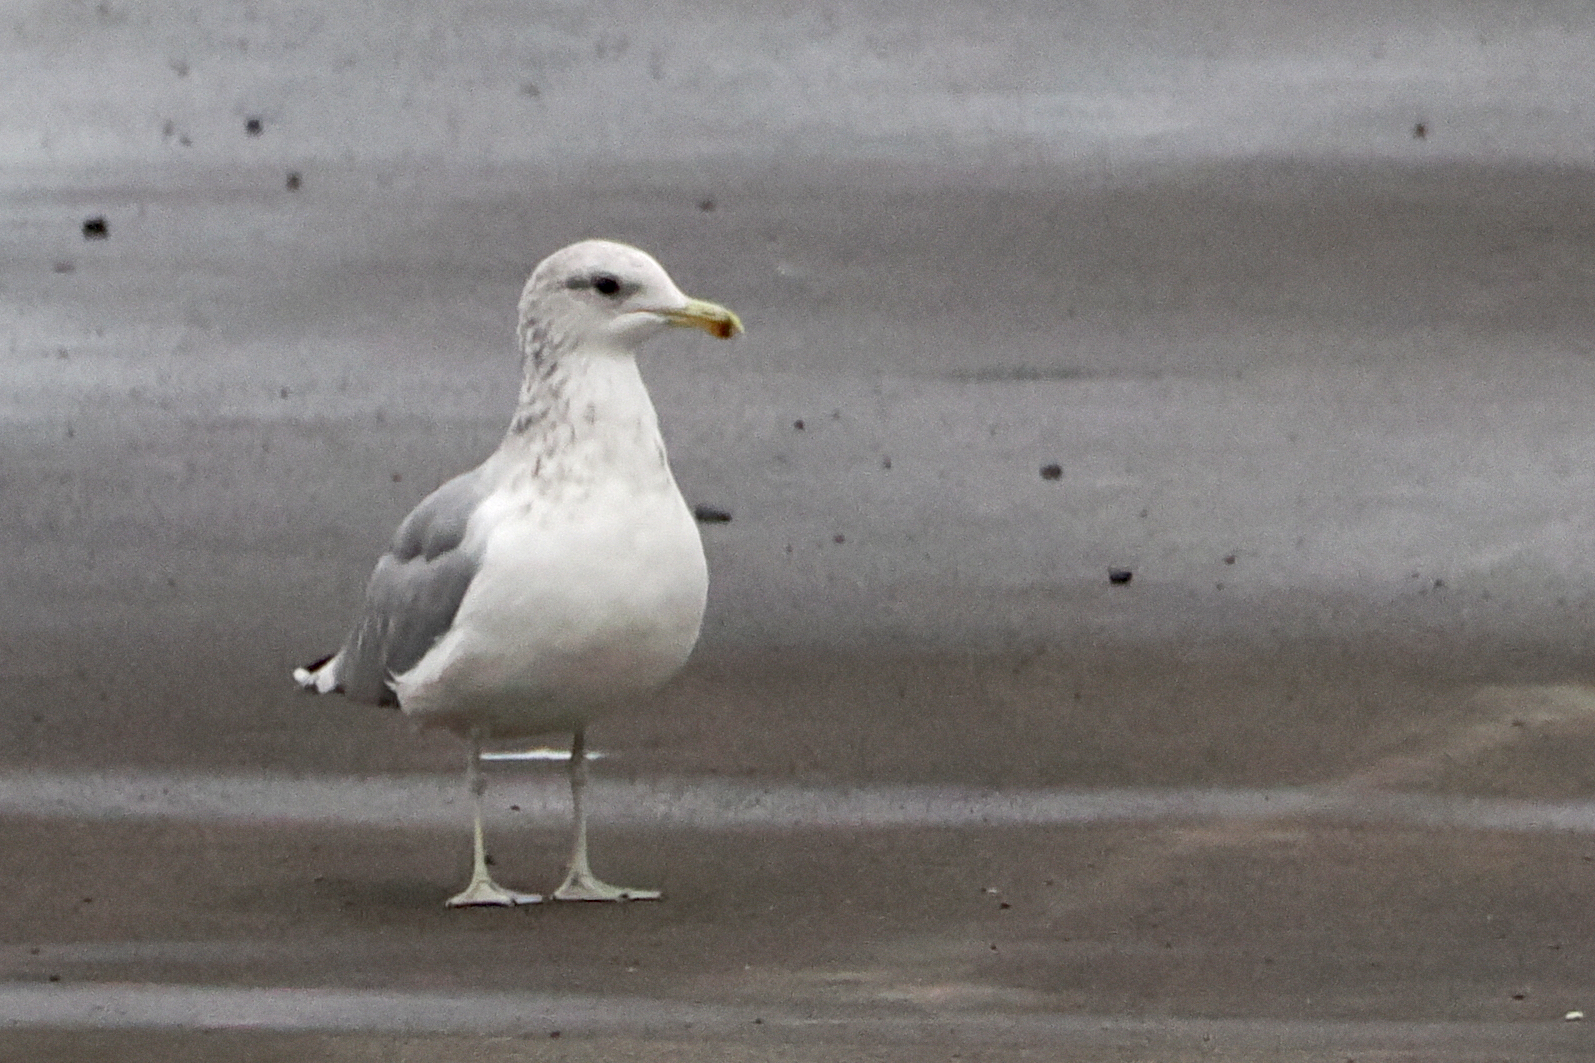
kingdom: Animalia
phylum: Chordata
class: Aves
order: Charadriiformes
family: Laridae
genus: Larus
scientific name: Larus californicus
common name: California gull
